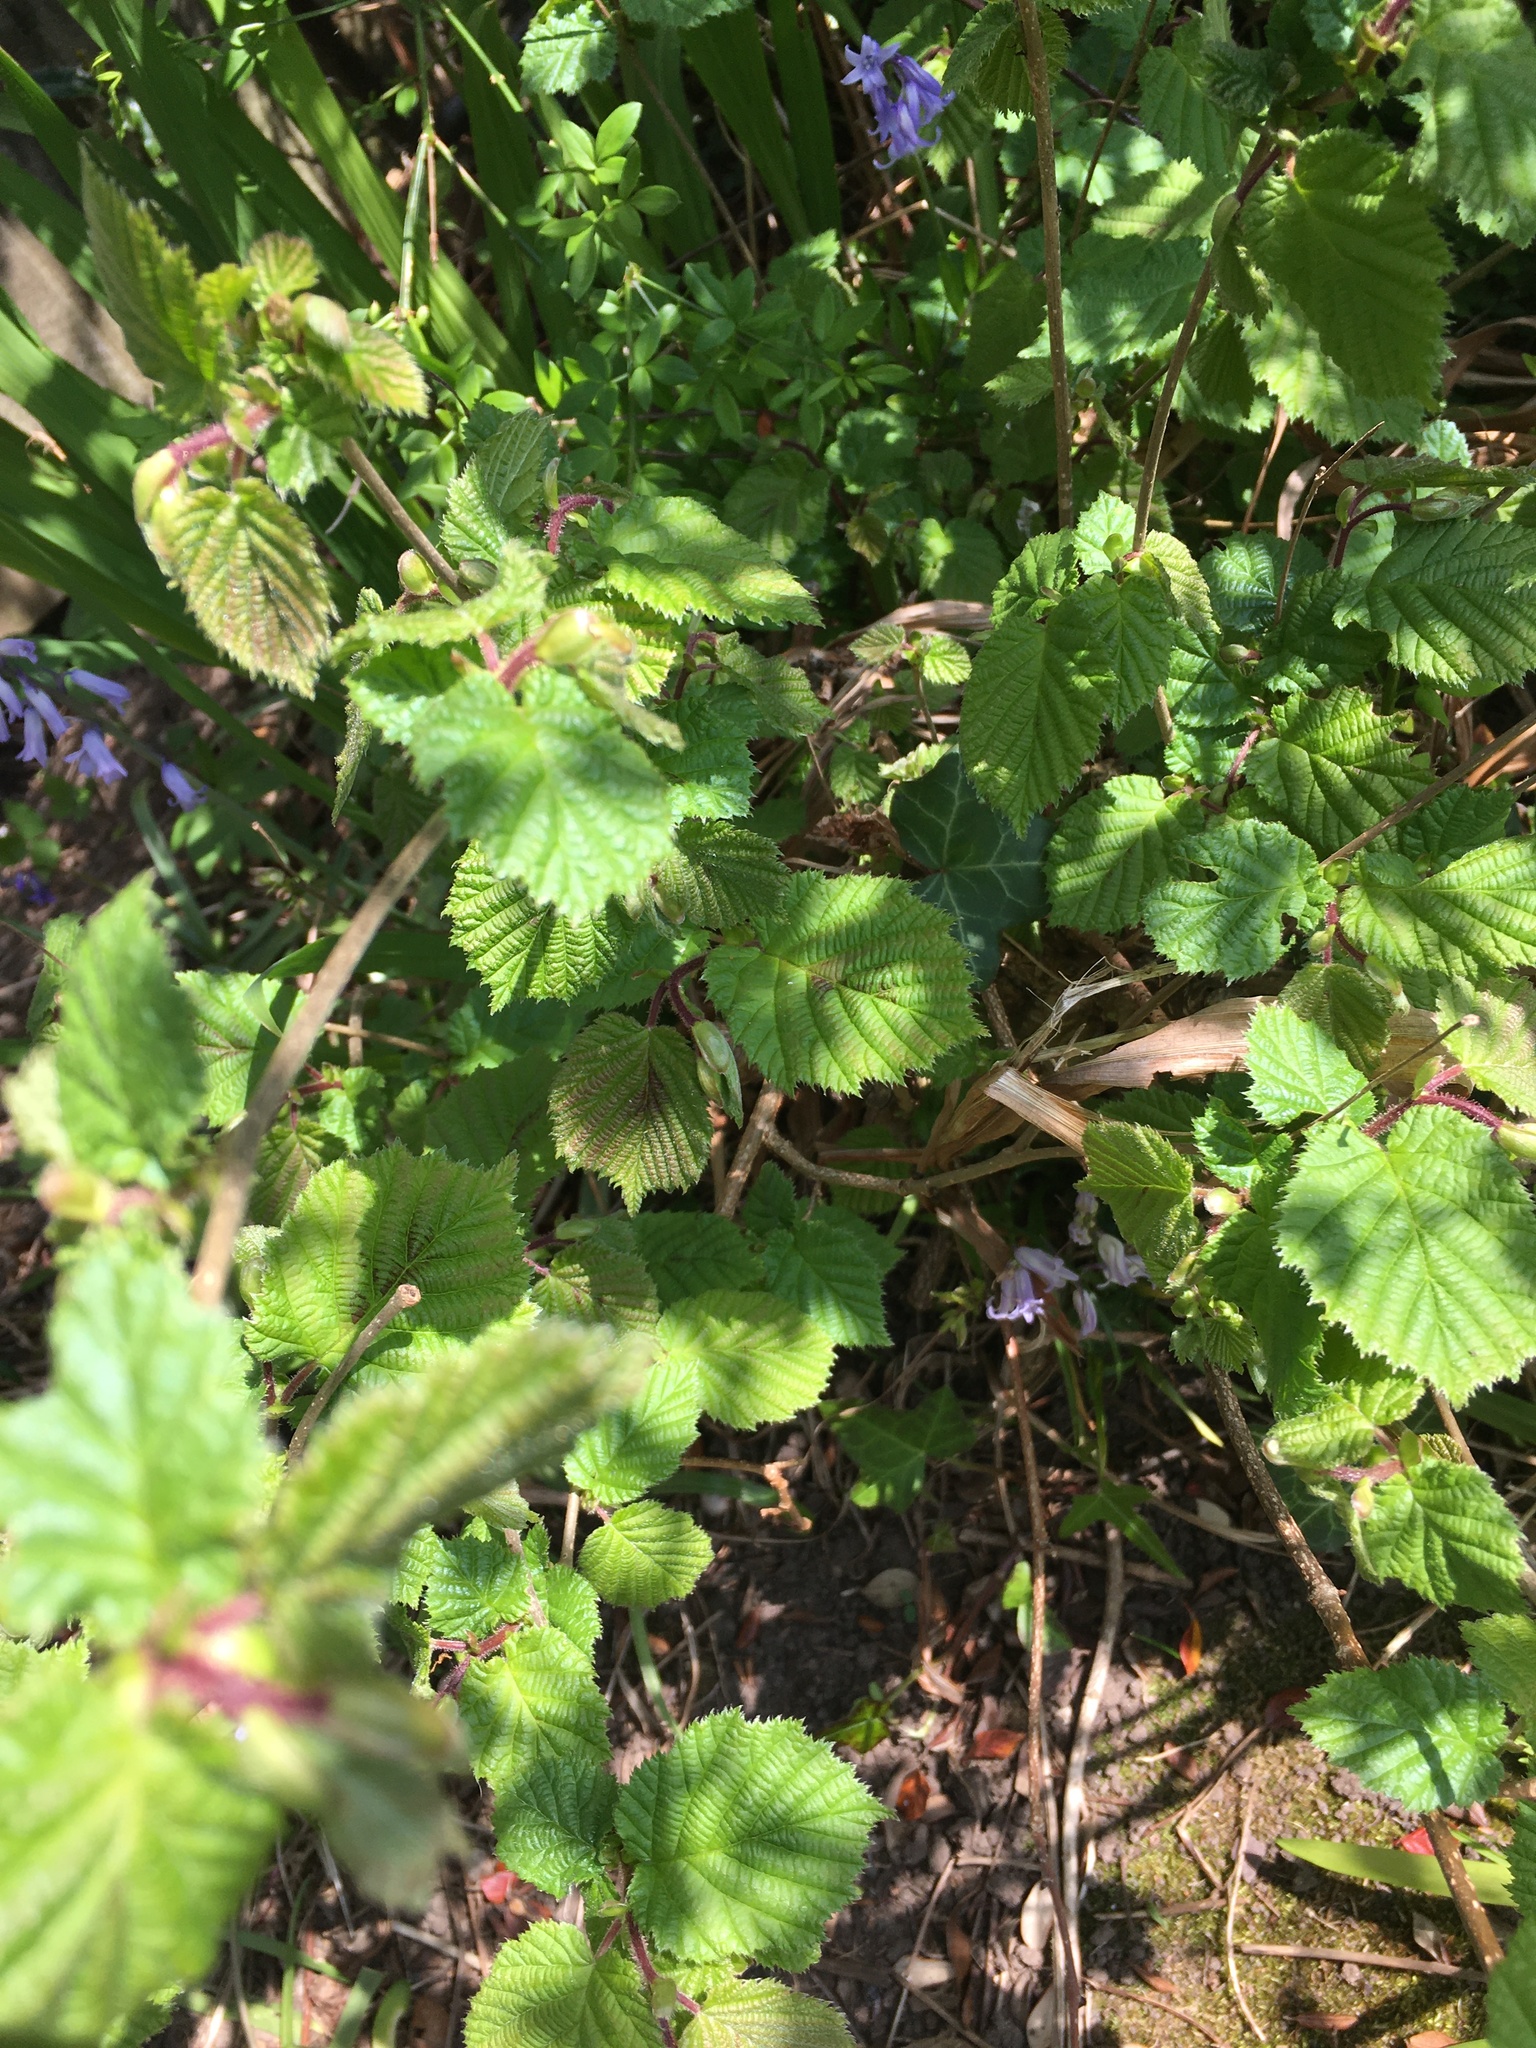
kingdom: Plantae
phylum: Tracheophyta
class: Magnoliopsida
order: Fagales
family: Betulaceae
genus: Corylus
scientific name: Corylus avellana
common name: European hazel
